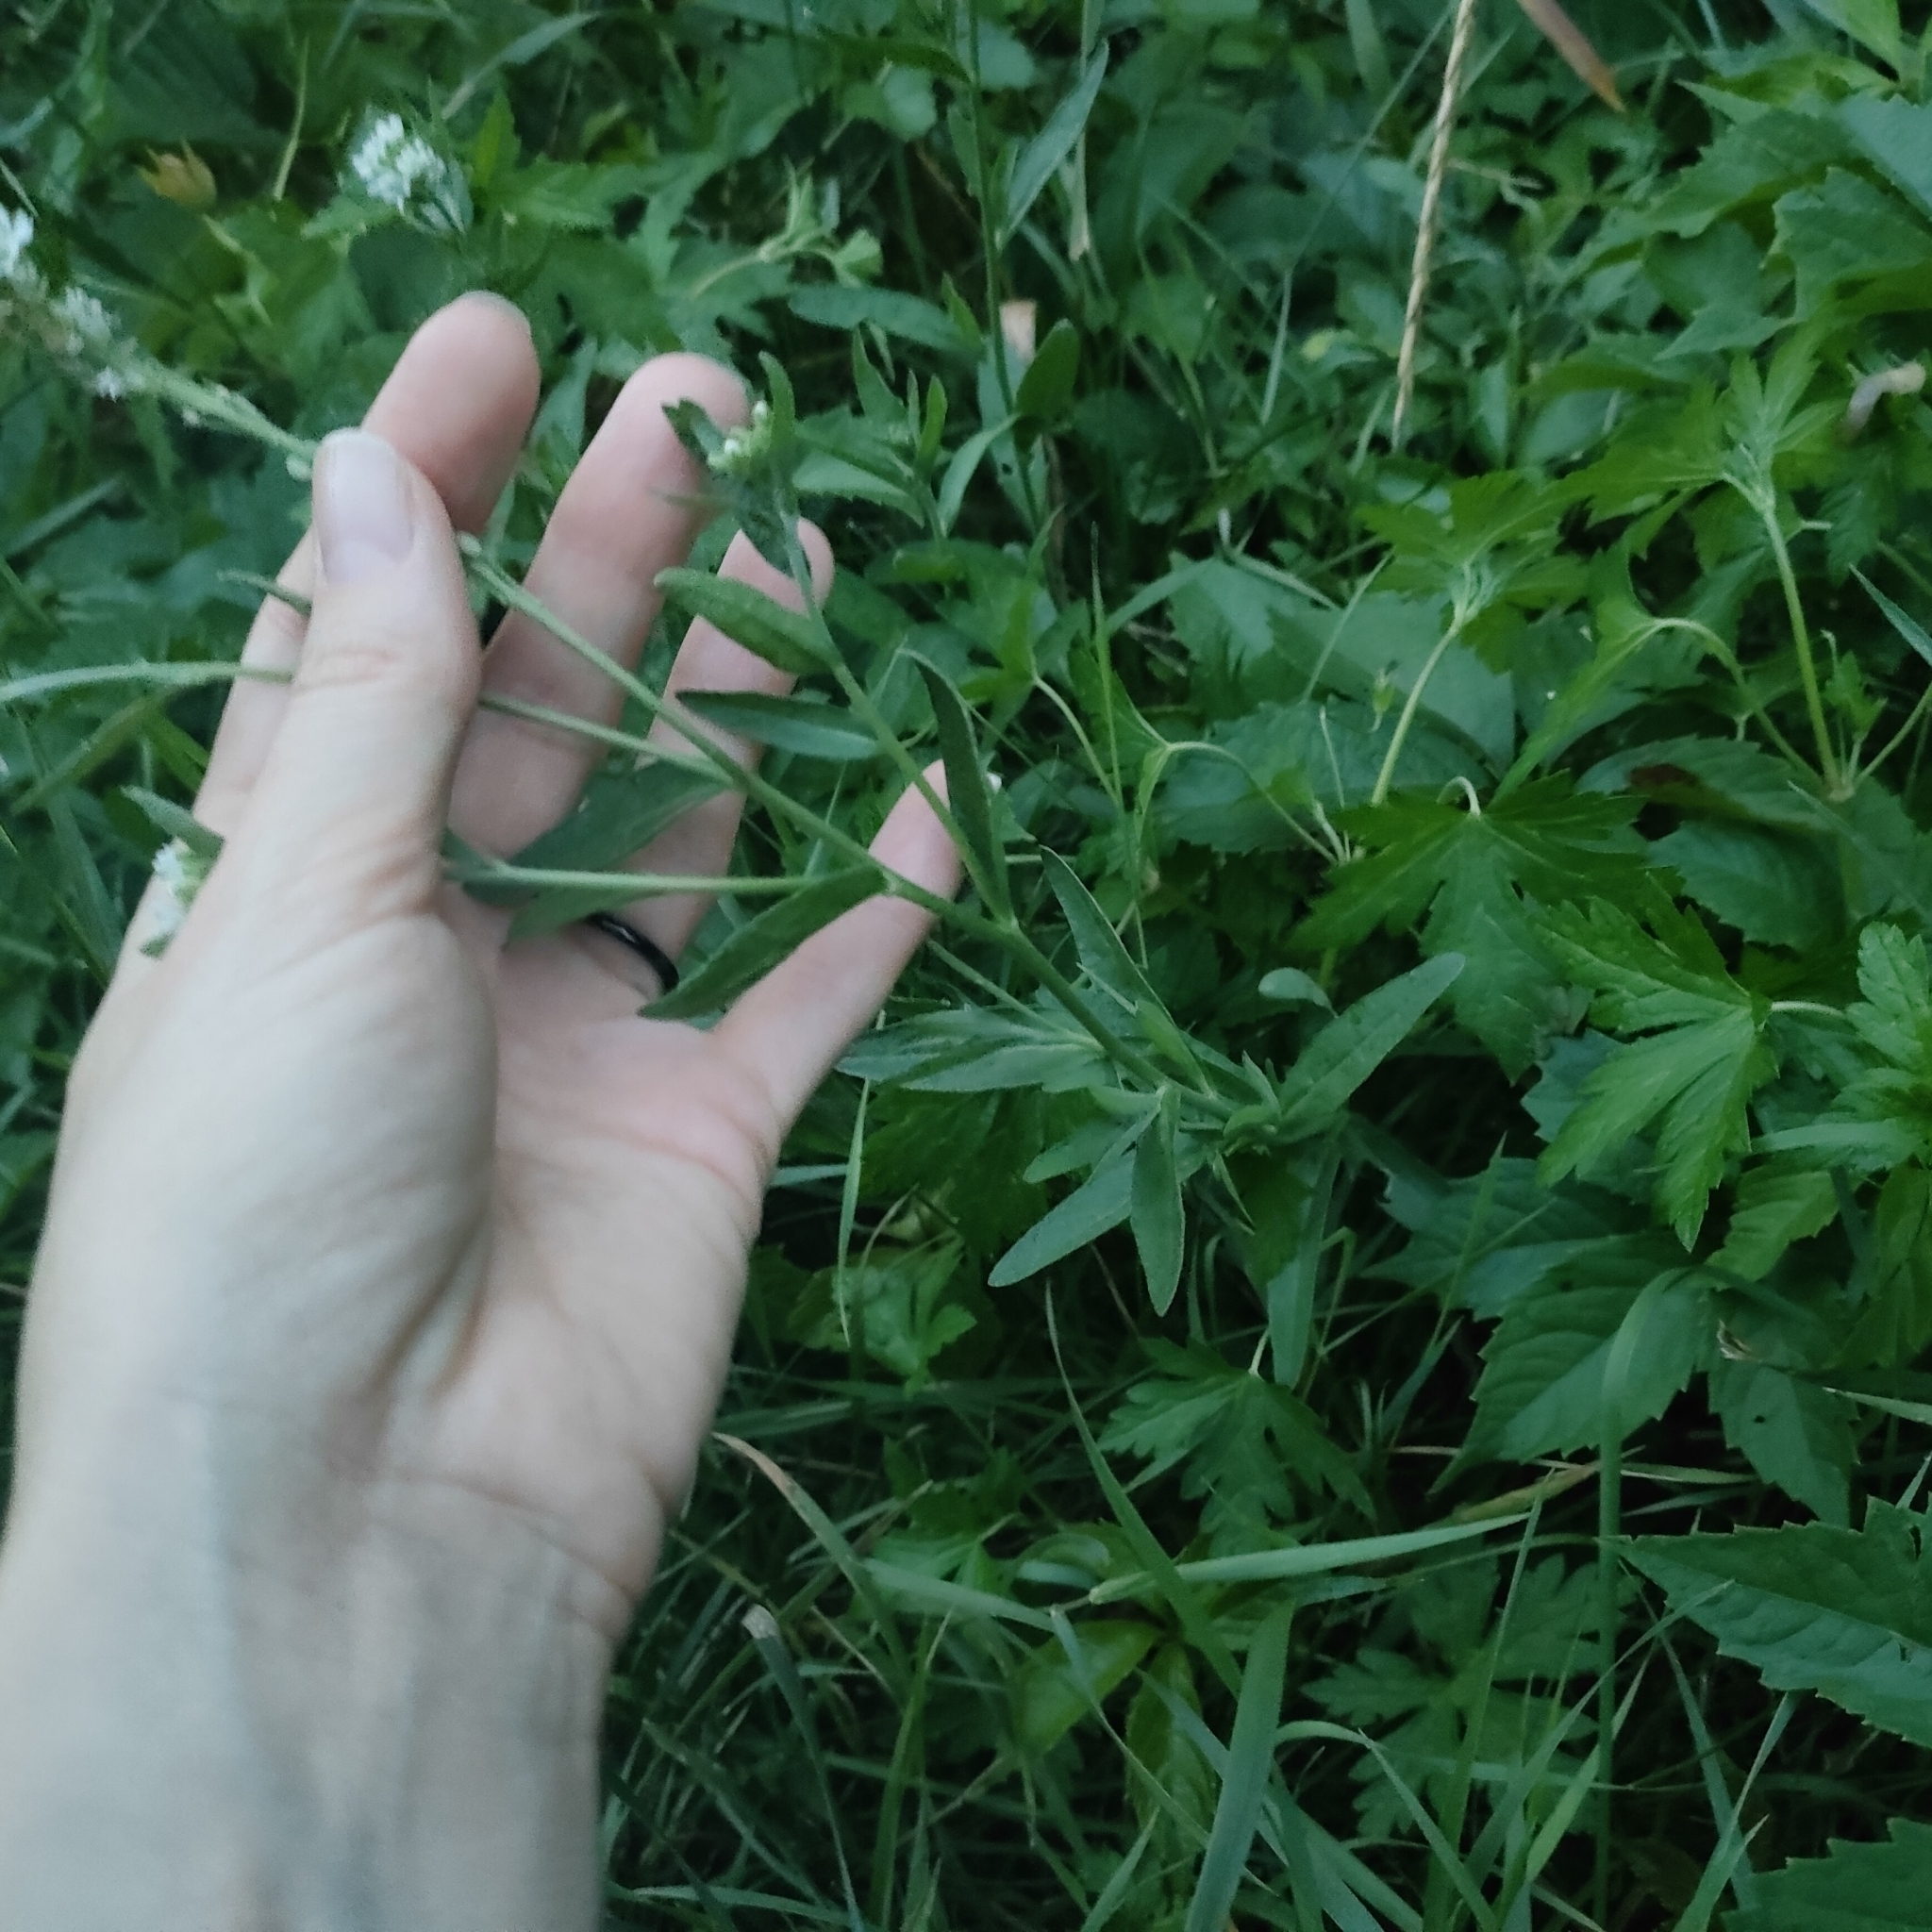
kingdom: Plantae
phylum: Tracheophyta
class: Magnoliopsida
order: Brassicales
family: Brassicaceae
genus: Berteroa
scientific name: Berteroa incana
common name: Hoary alison
